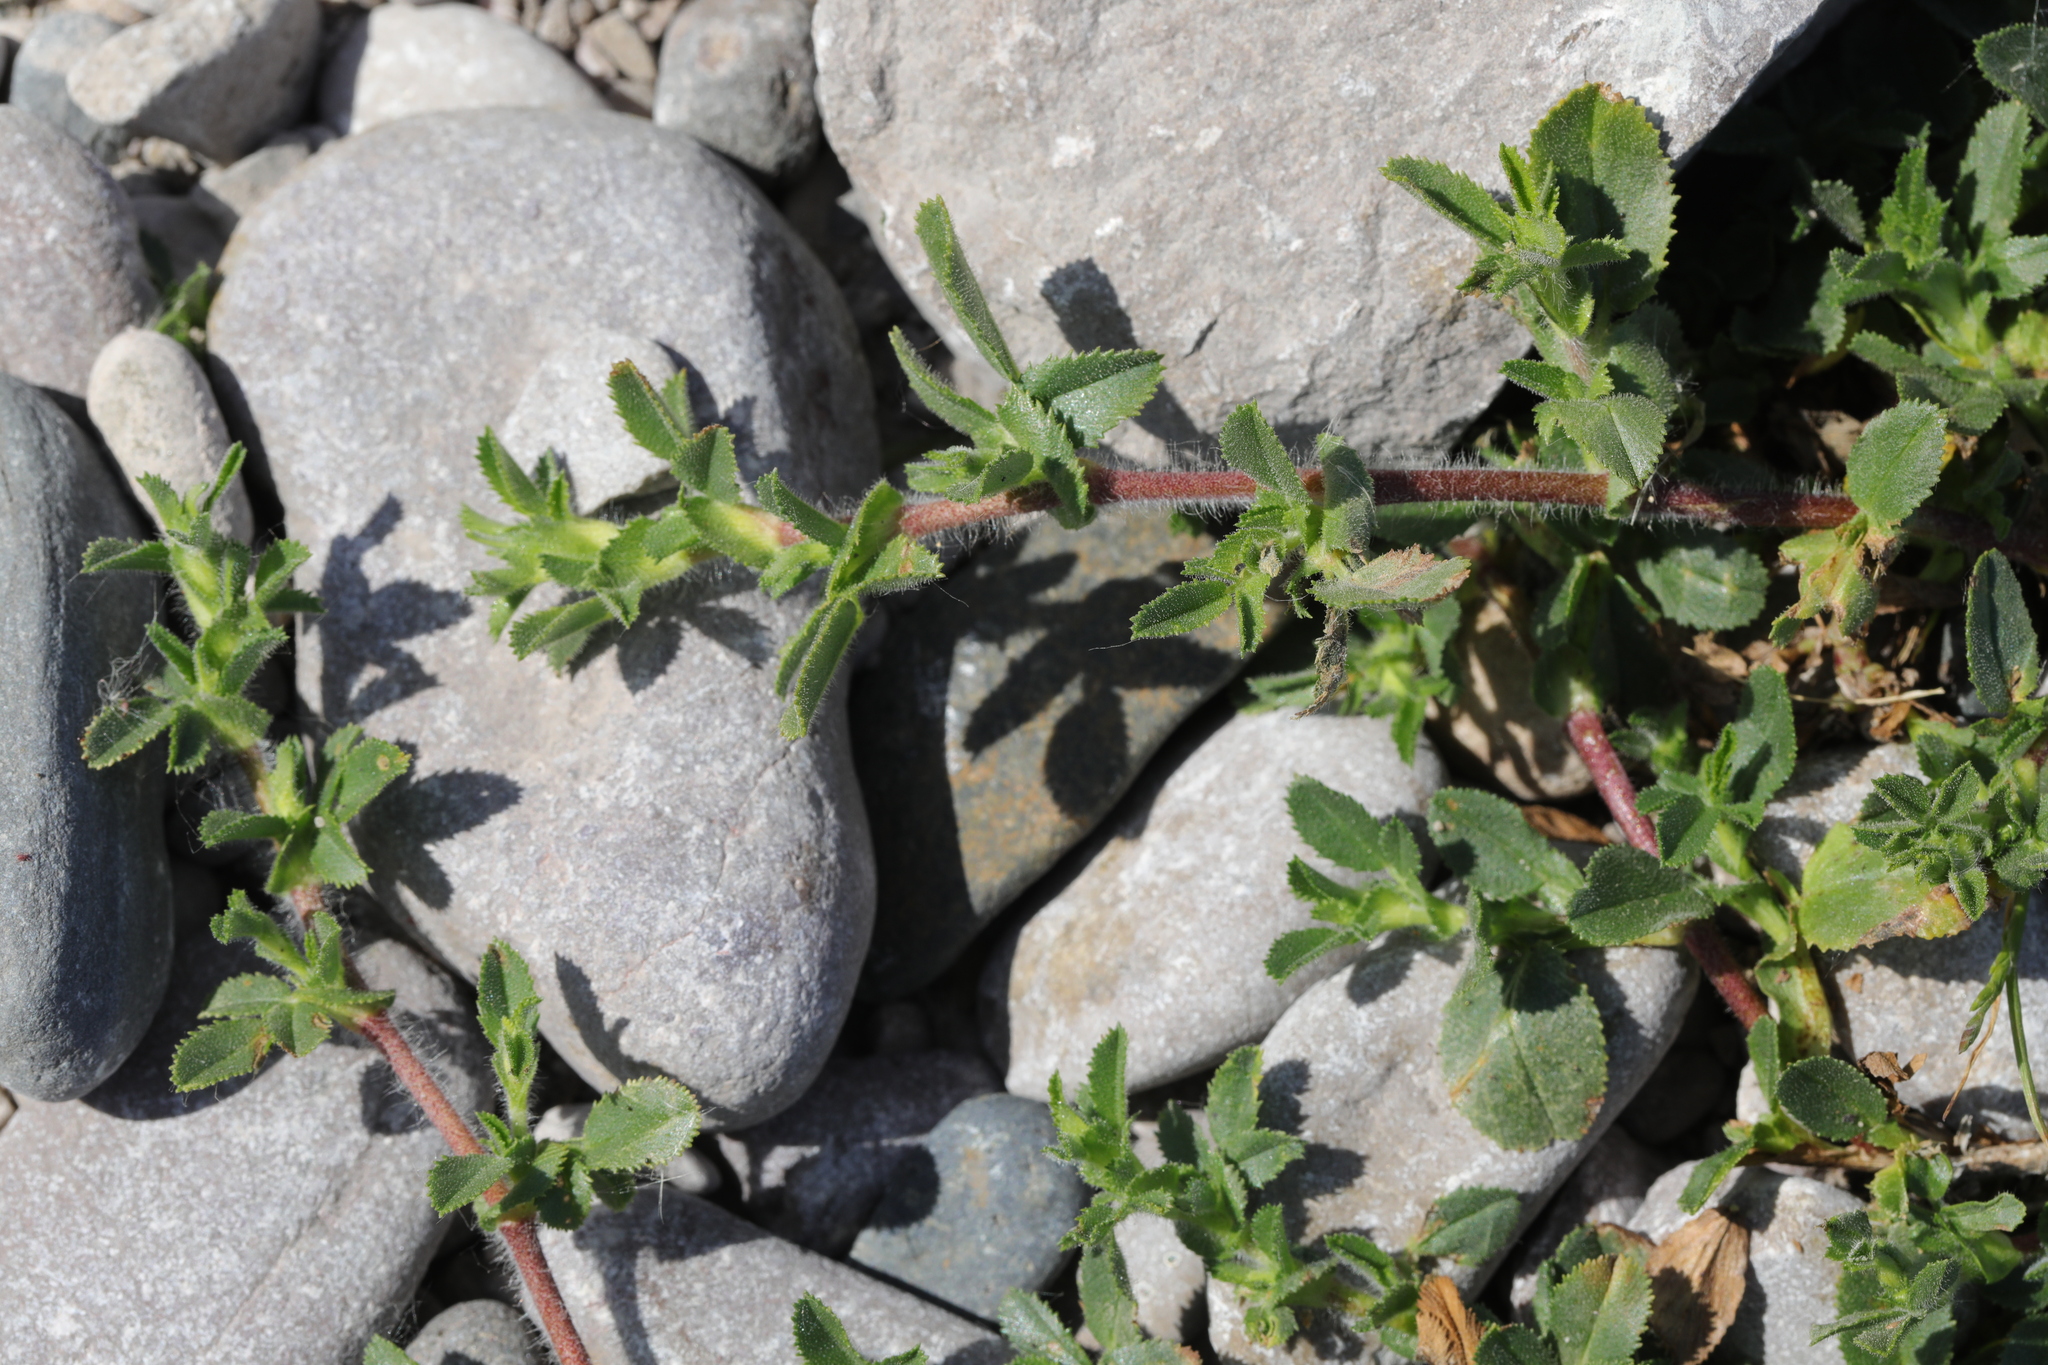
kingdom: Plantae
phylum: Tracheophyta
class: Magnoliopsida
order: Fabales
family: Fabaceae
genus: Ononis
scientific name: Ononis spinosa
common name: Spiny restharrow
